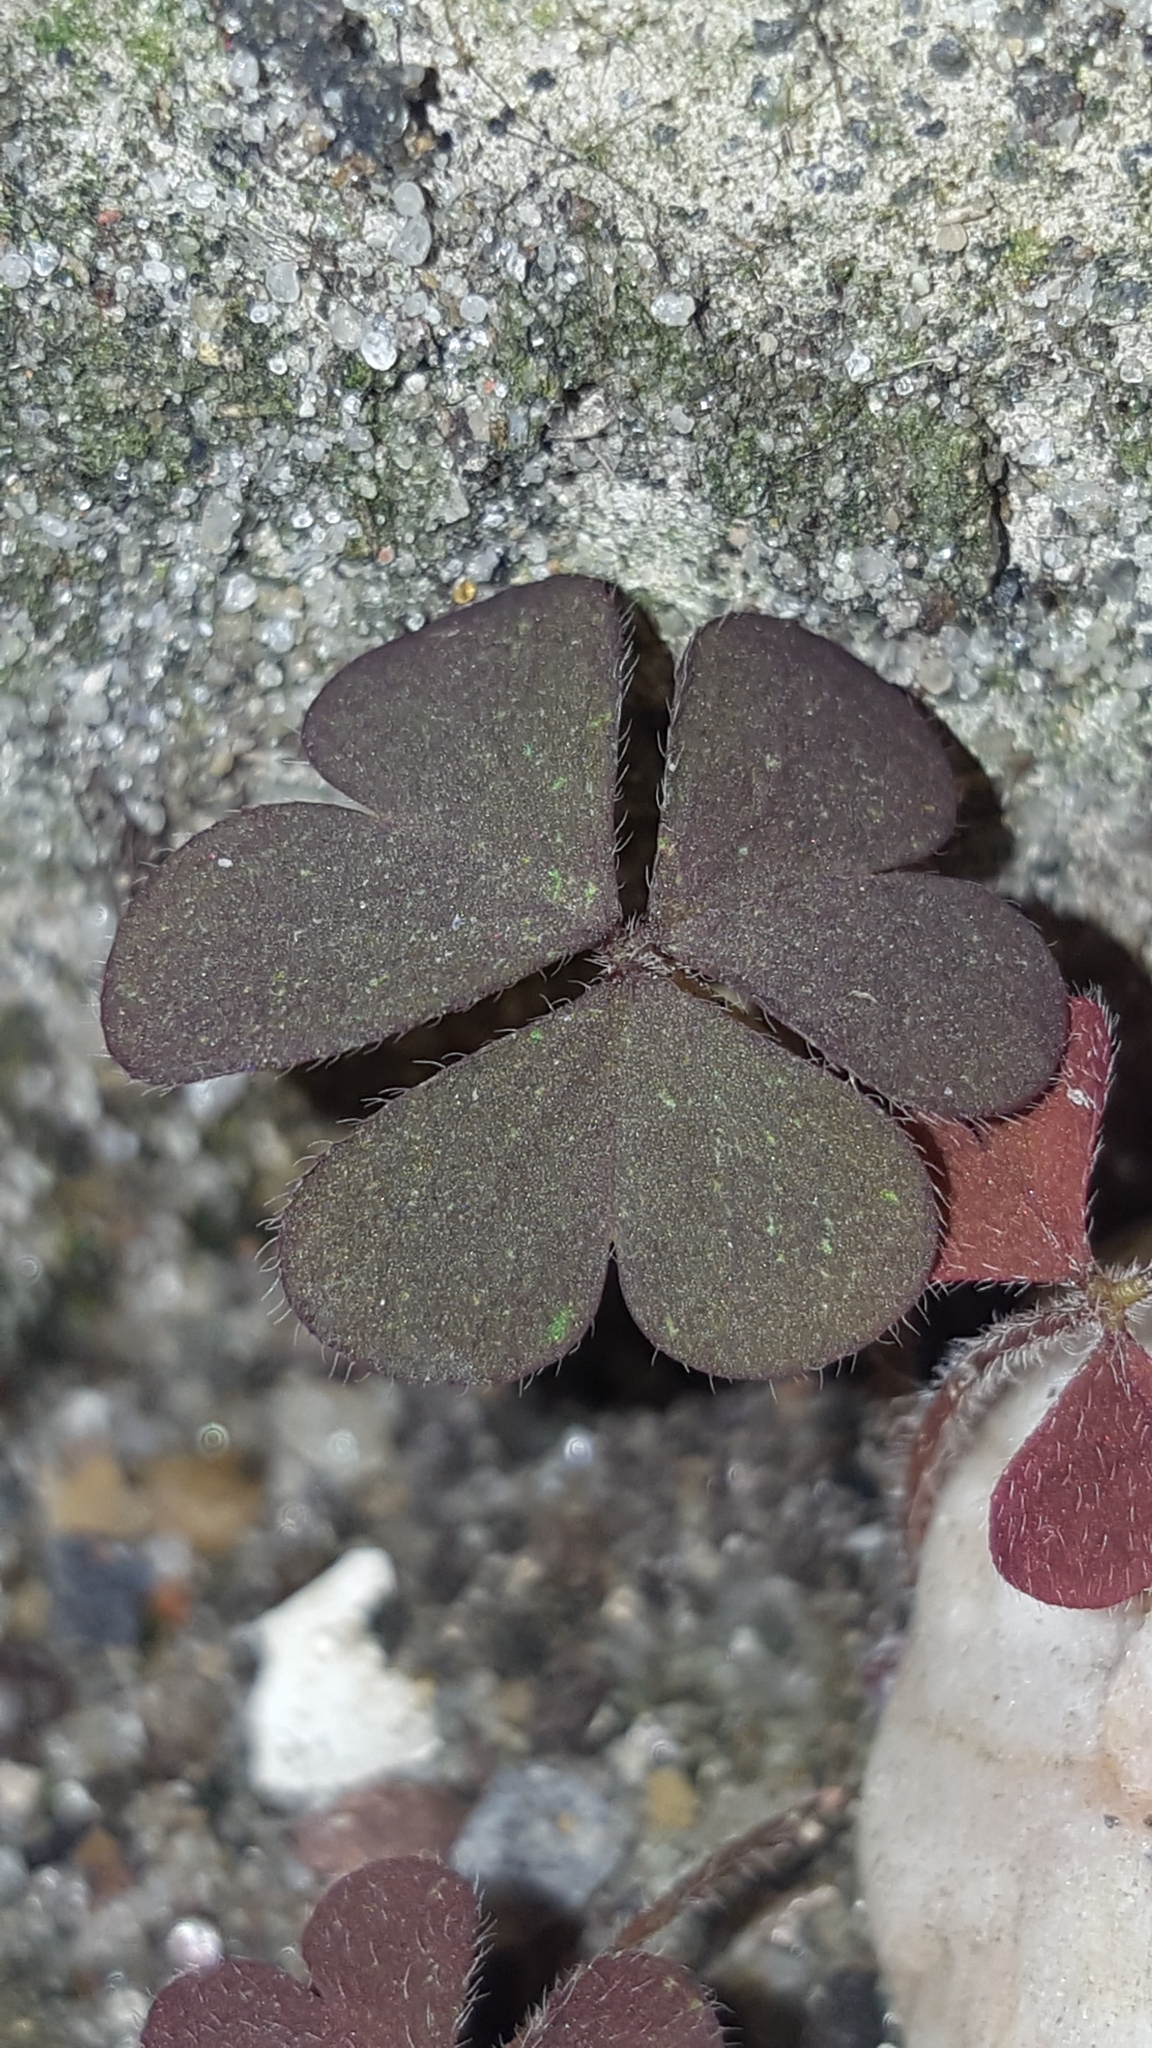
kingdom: Plantae
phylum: Tracheophyta
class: Magnoliopsida
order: Oxalidales
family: Oxalidaceae
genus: Oxalis
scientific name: Oxalis corniculata
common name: Procumbent yellow-sorrel
